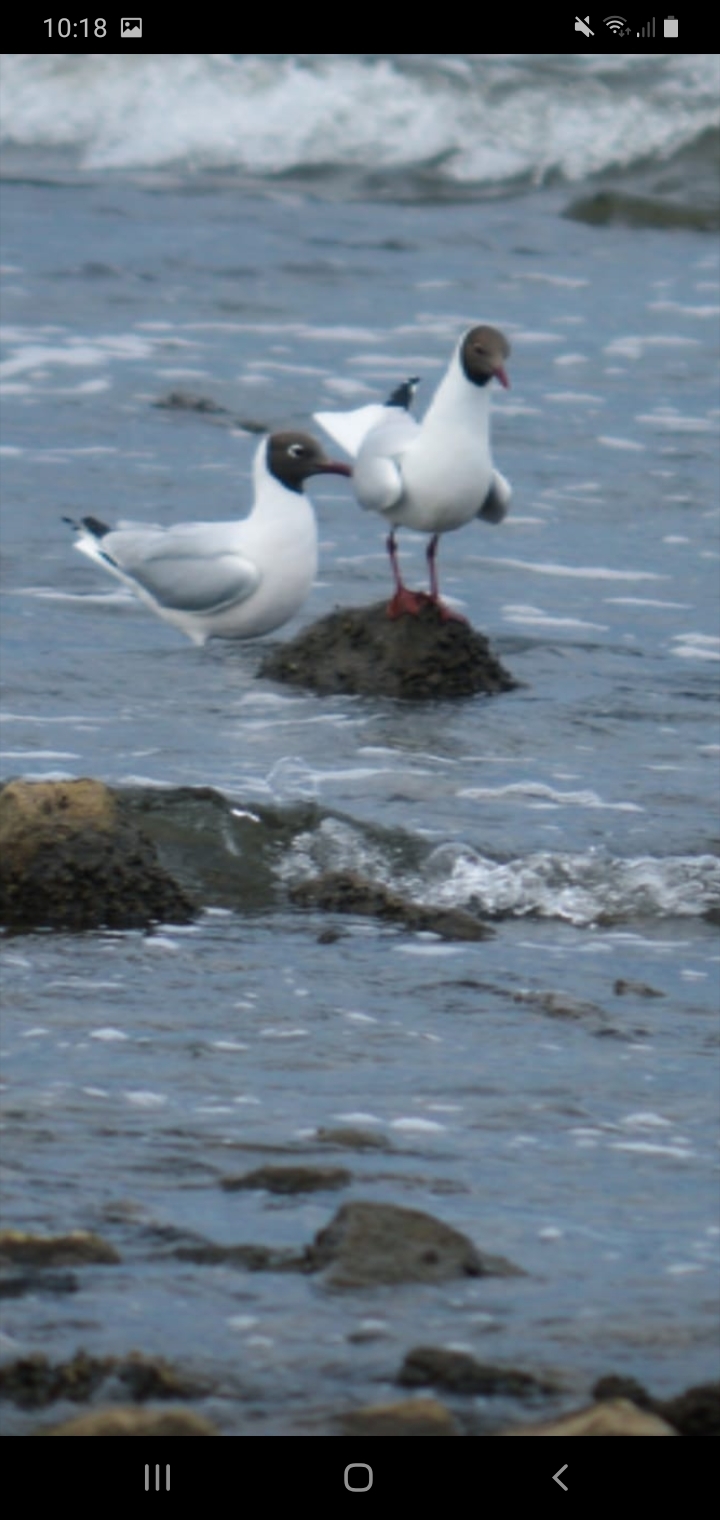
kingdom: Animalia
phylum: Chordata
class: Aves
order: Charadriiformes
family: Laridae
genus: Chroicocephalus
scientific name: Chroicocephalus maculipennis
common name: Brown-hooded gull
